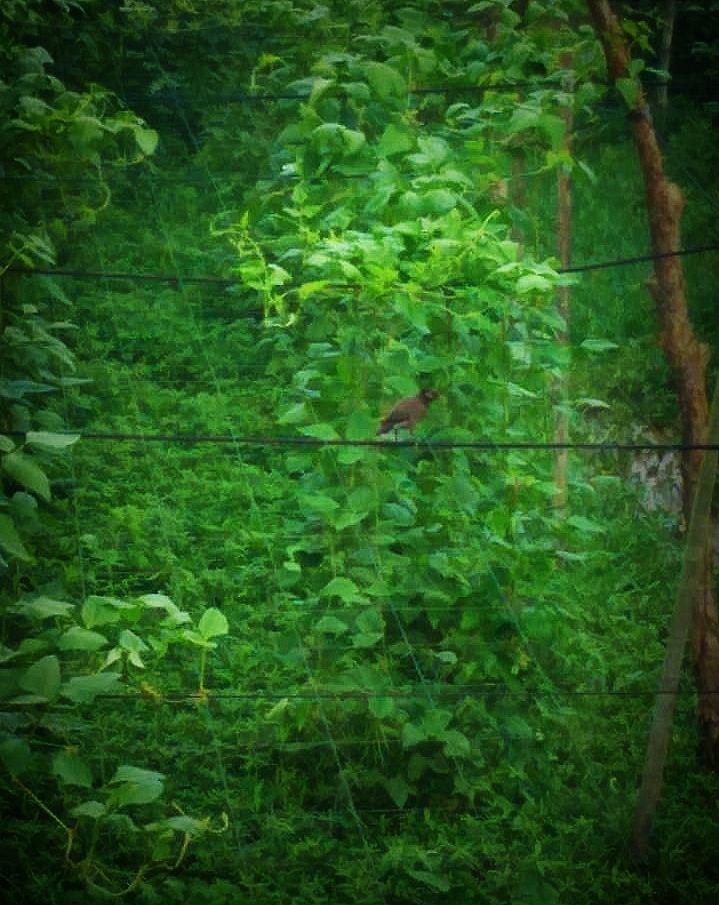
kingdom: Animalia
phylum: Chordata
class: Aves
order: Passeriformes
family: Sturnidae
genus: Acridotheres
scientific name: Acridotheres tristis
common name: Common myna
